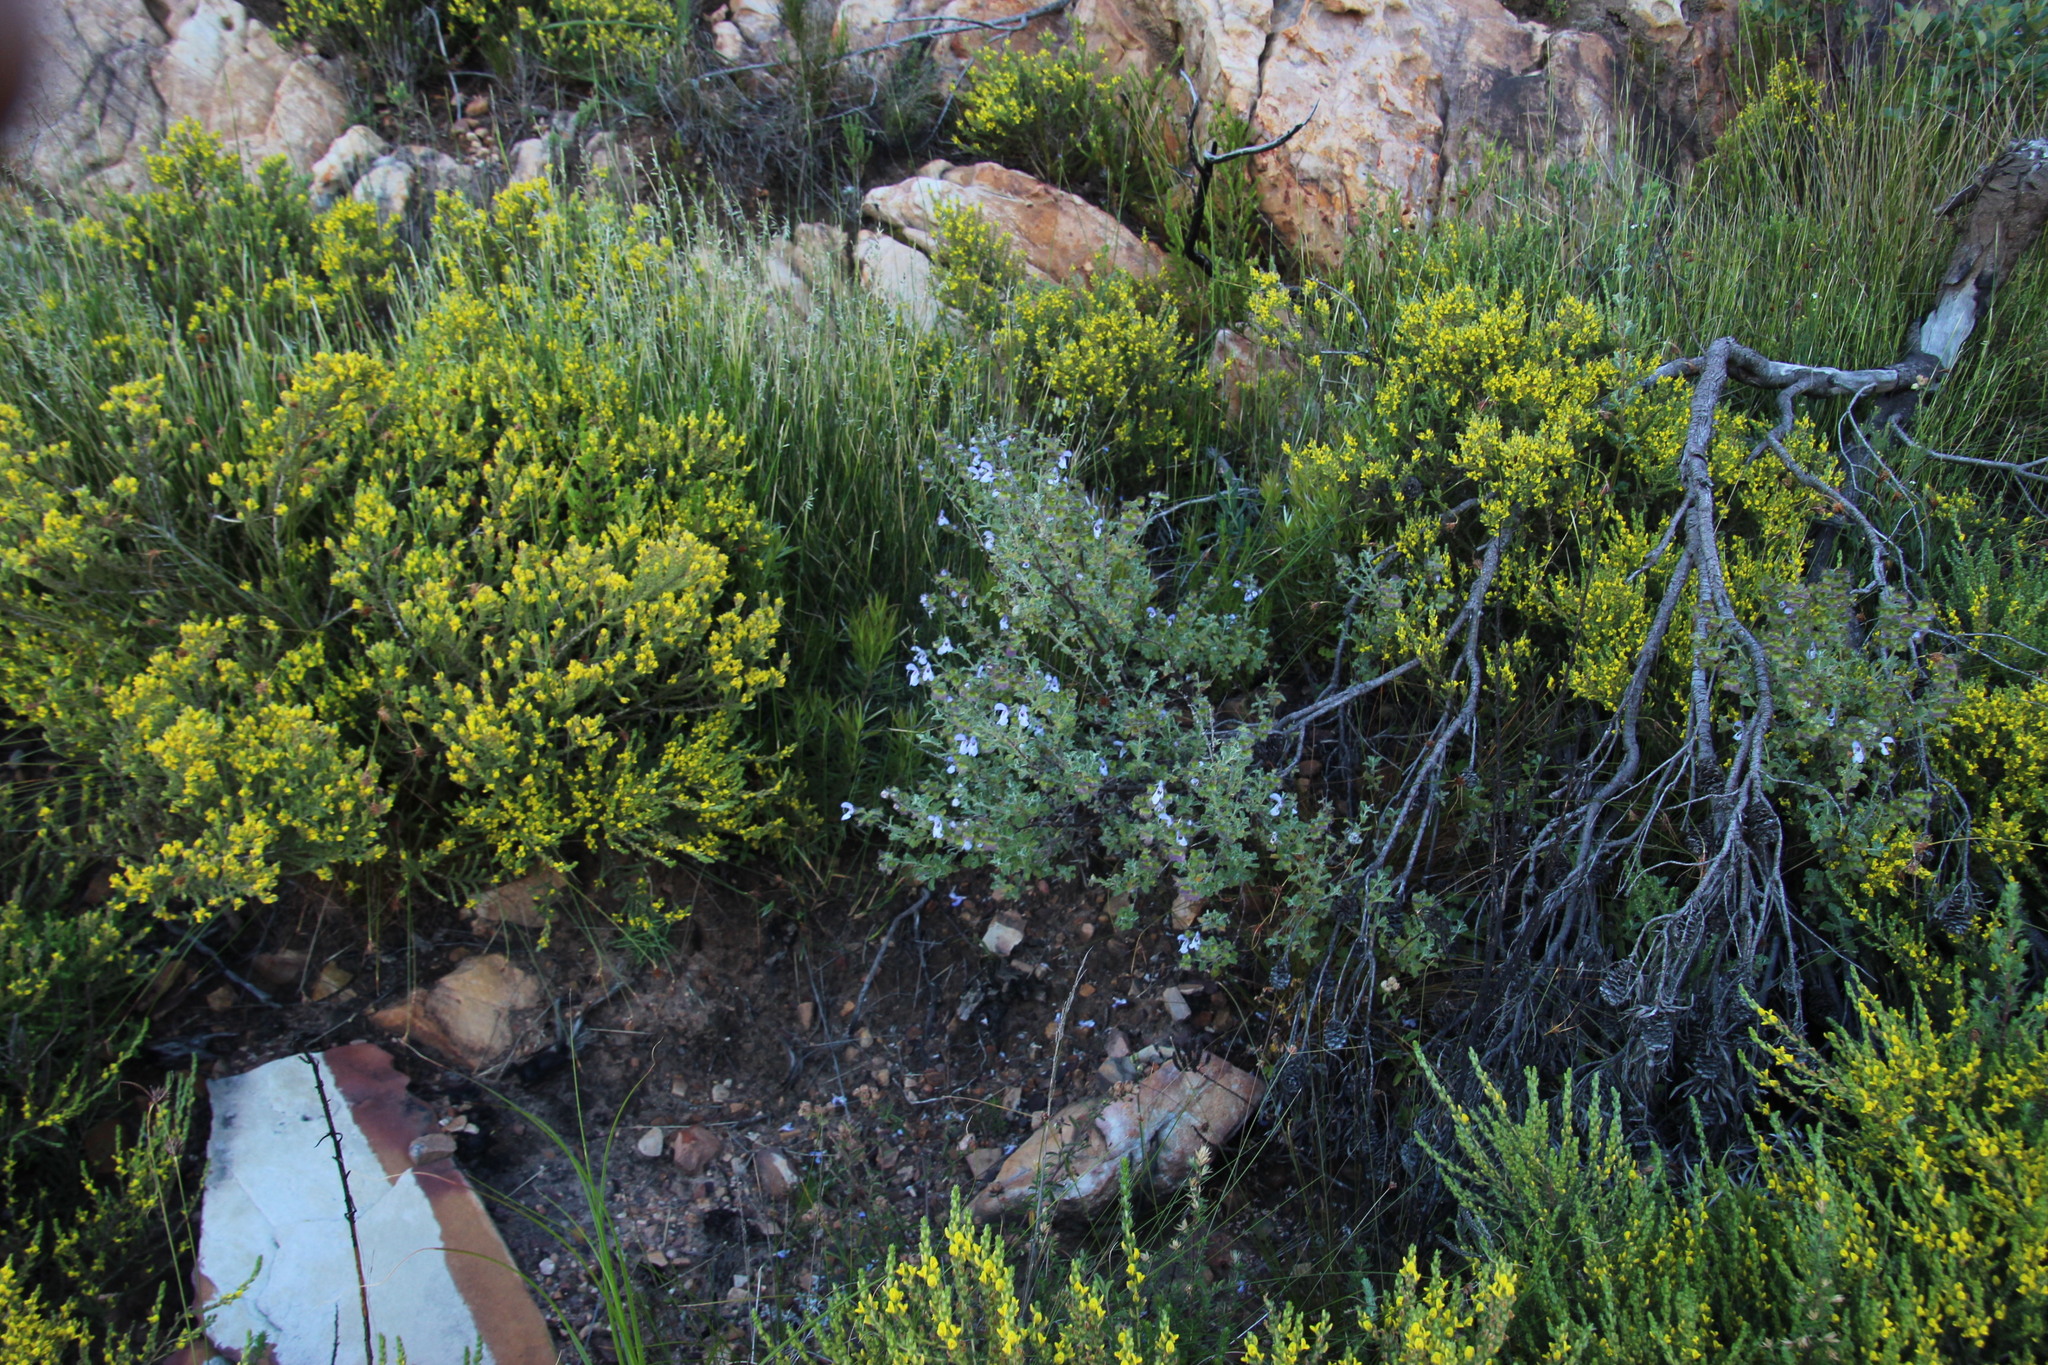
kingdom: Plantae
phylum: Tracheophyta
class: Magnoliopsida
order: Lamiales
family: Lamiaceae
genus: Salvia
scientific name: Salvia africana
